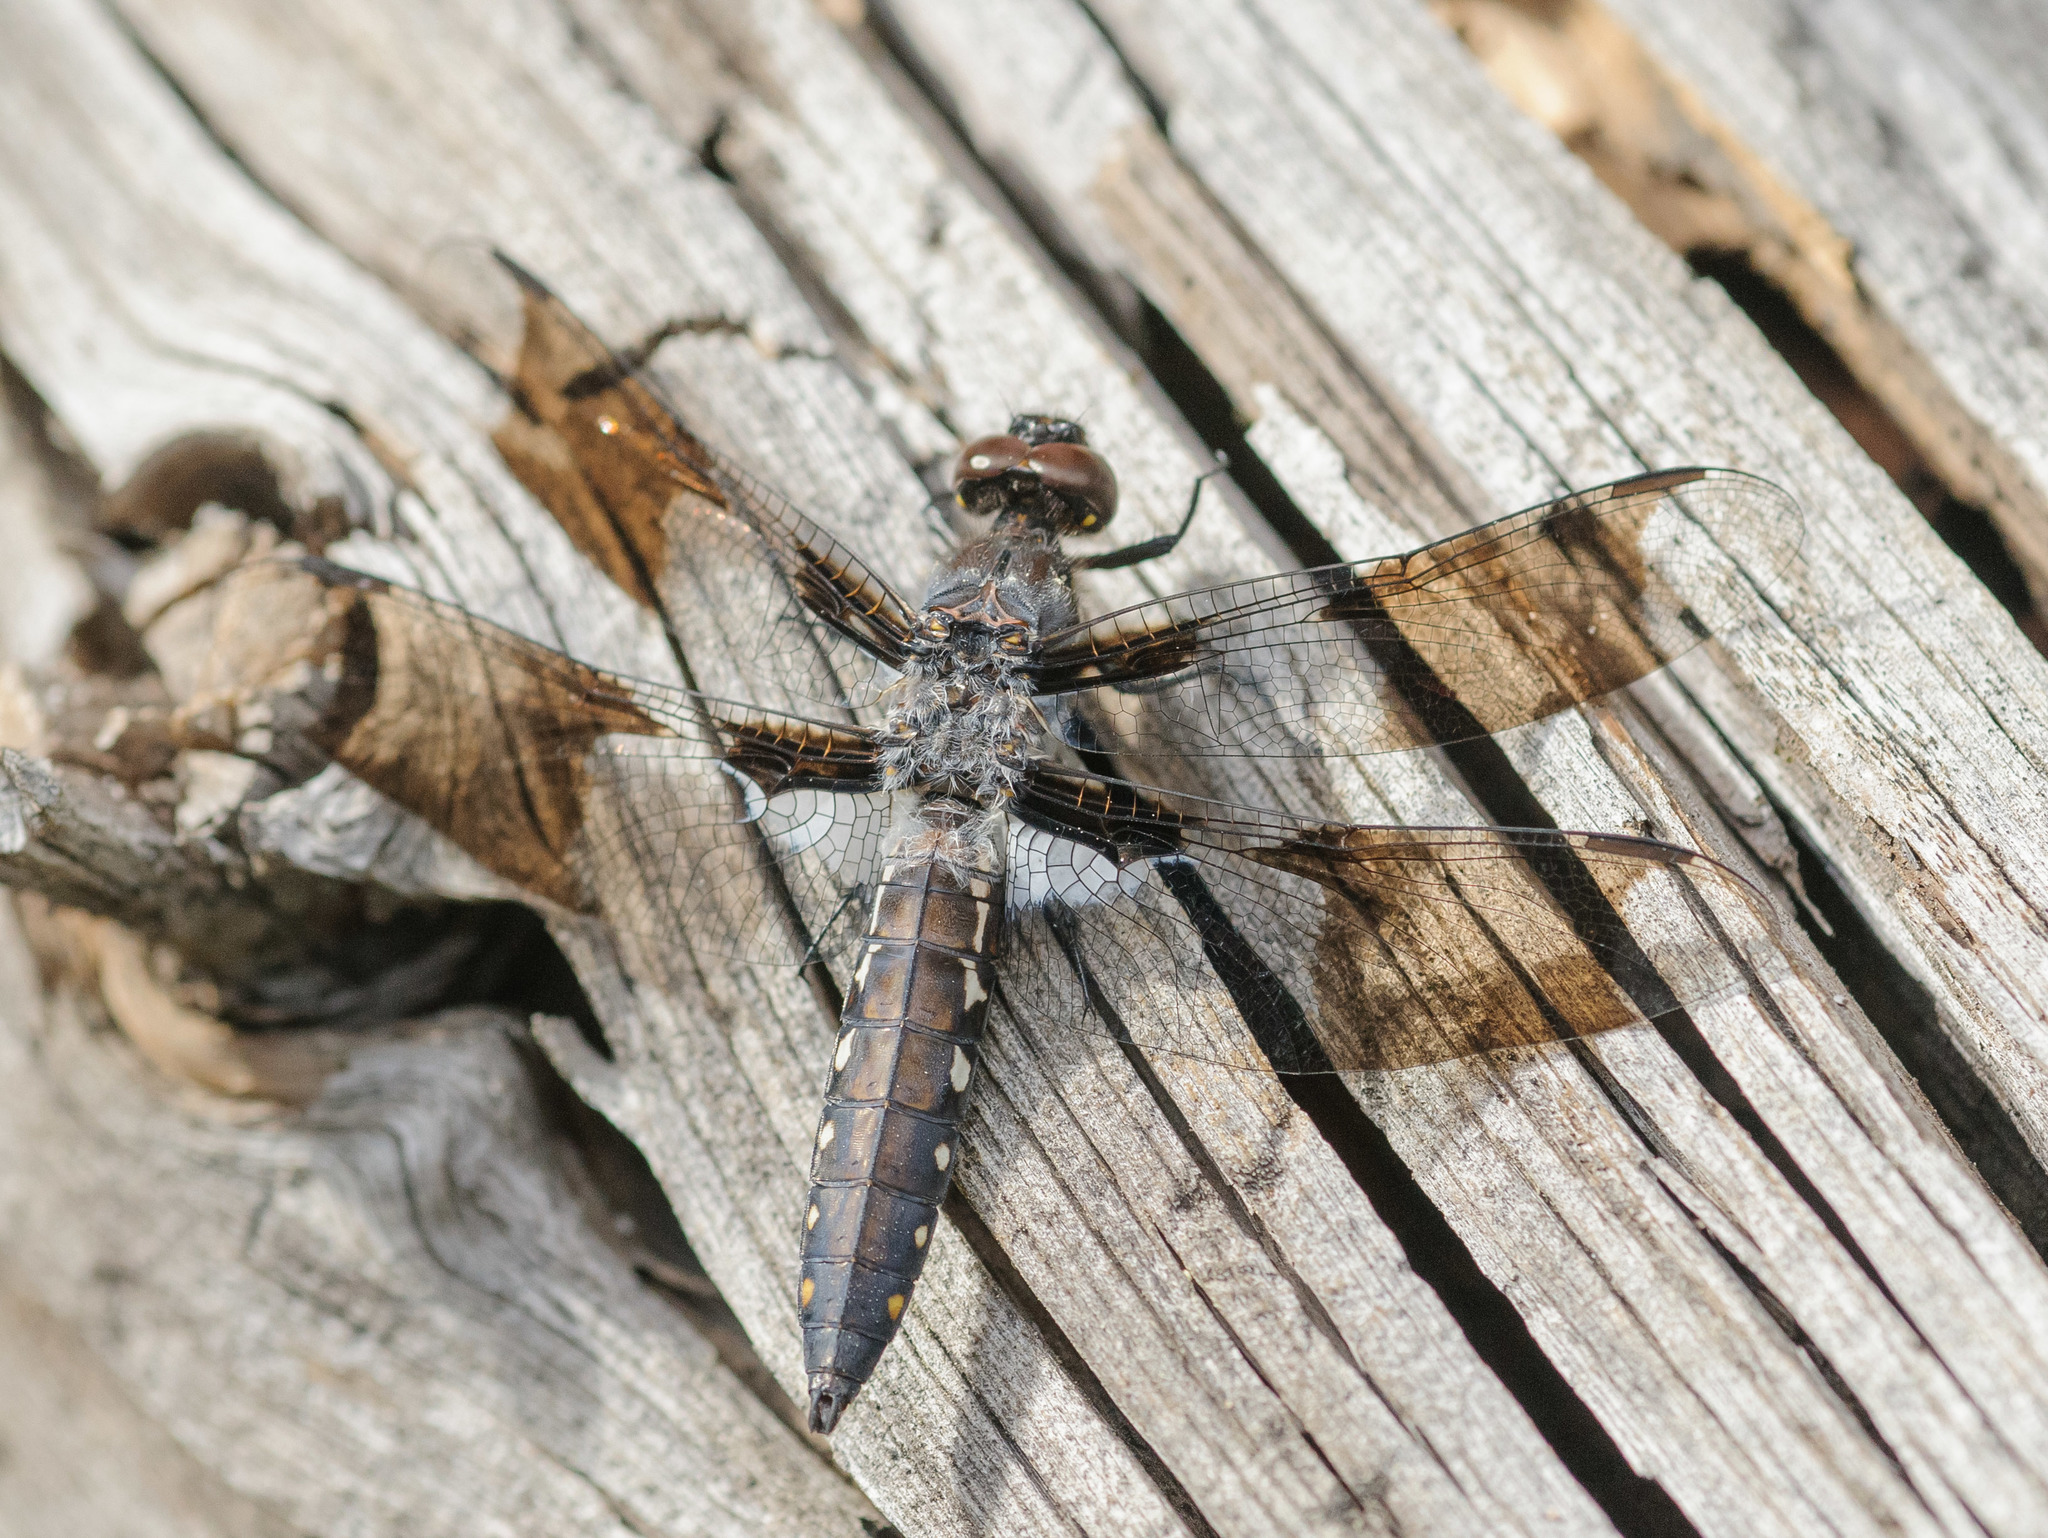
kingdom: Animalia
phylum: Arthropoda
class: Insecta
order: Odonata
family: Libellulidae
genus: Plathemis
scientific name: Plathemis lydia
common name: Common whitetail
